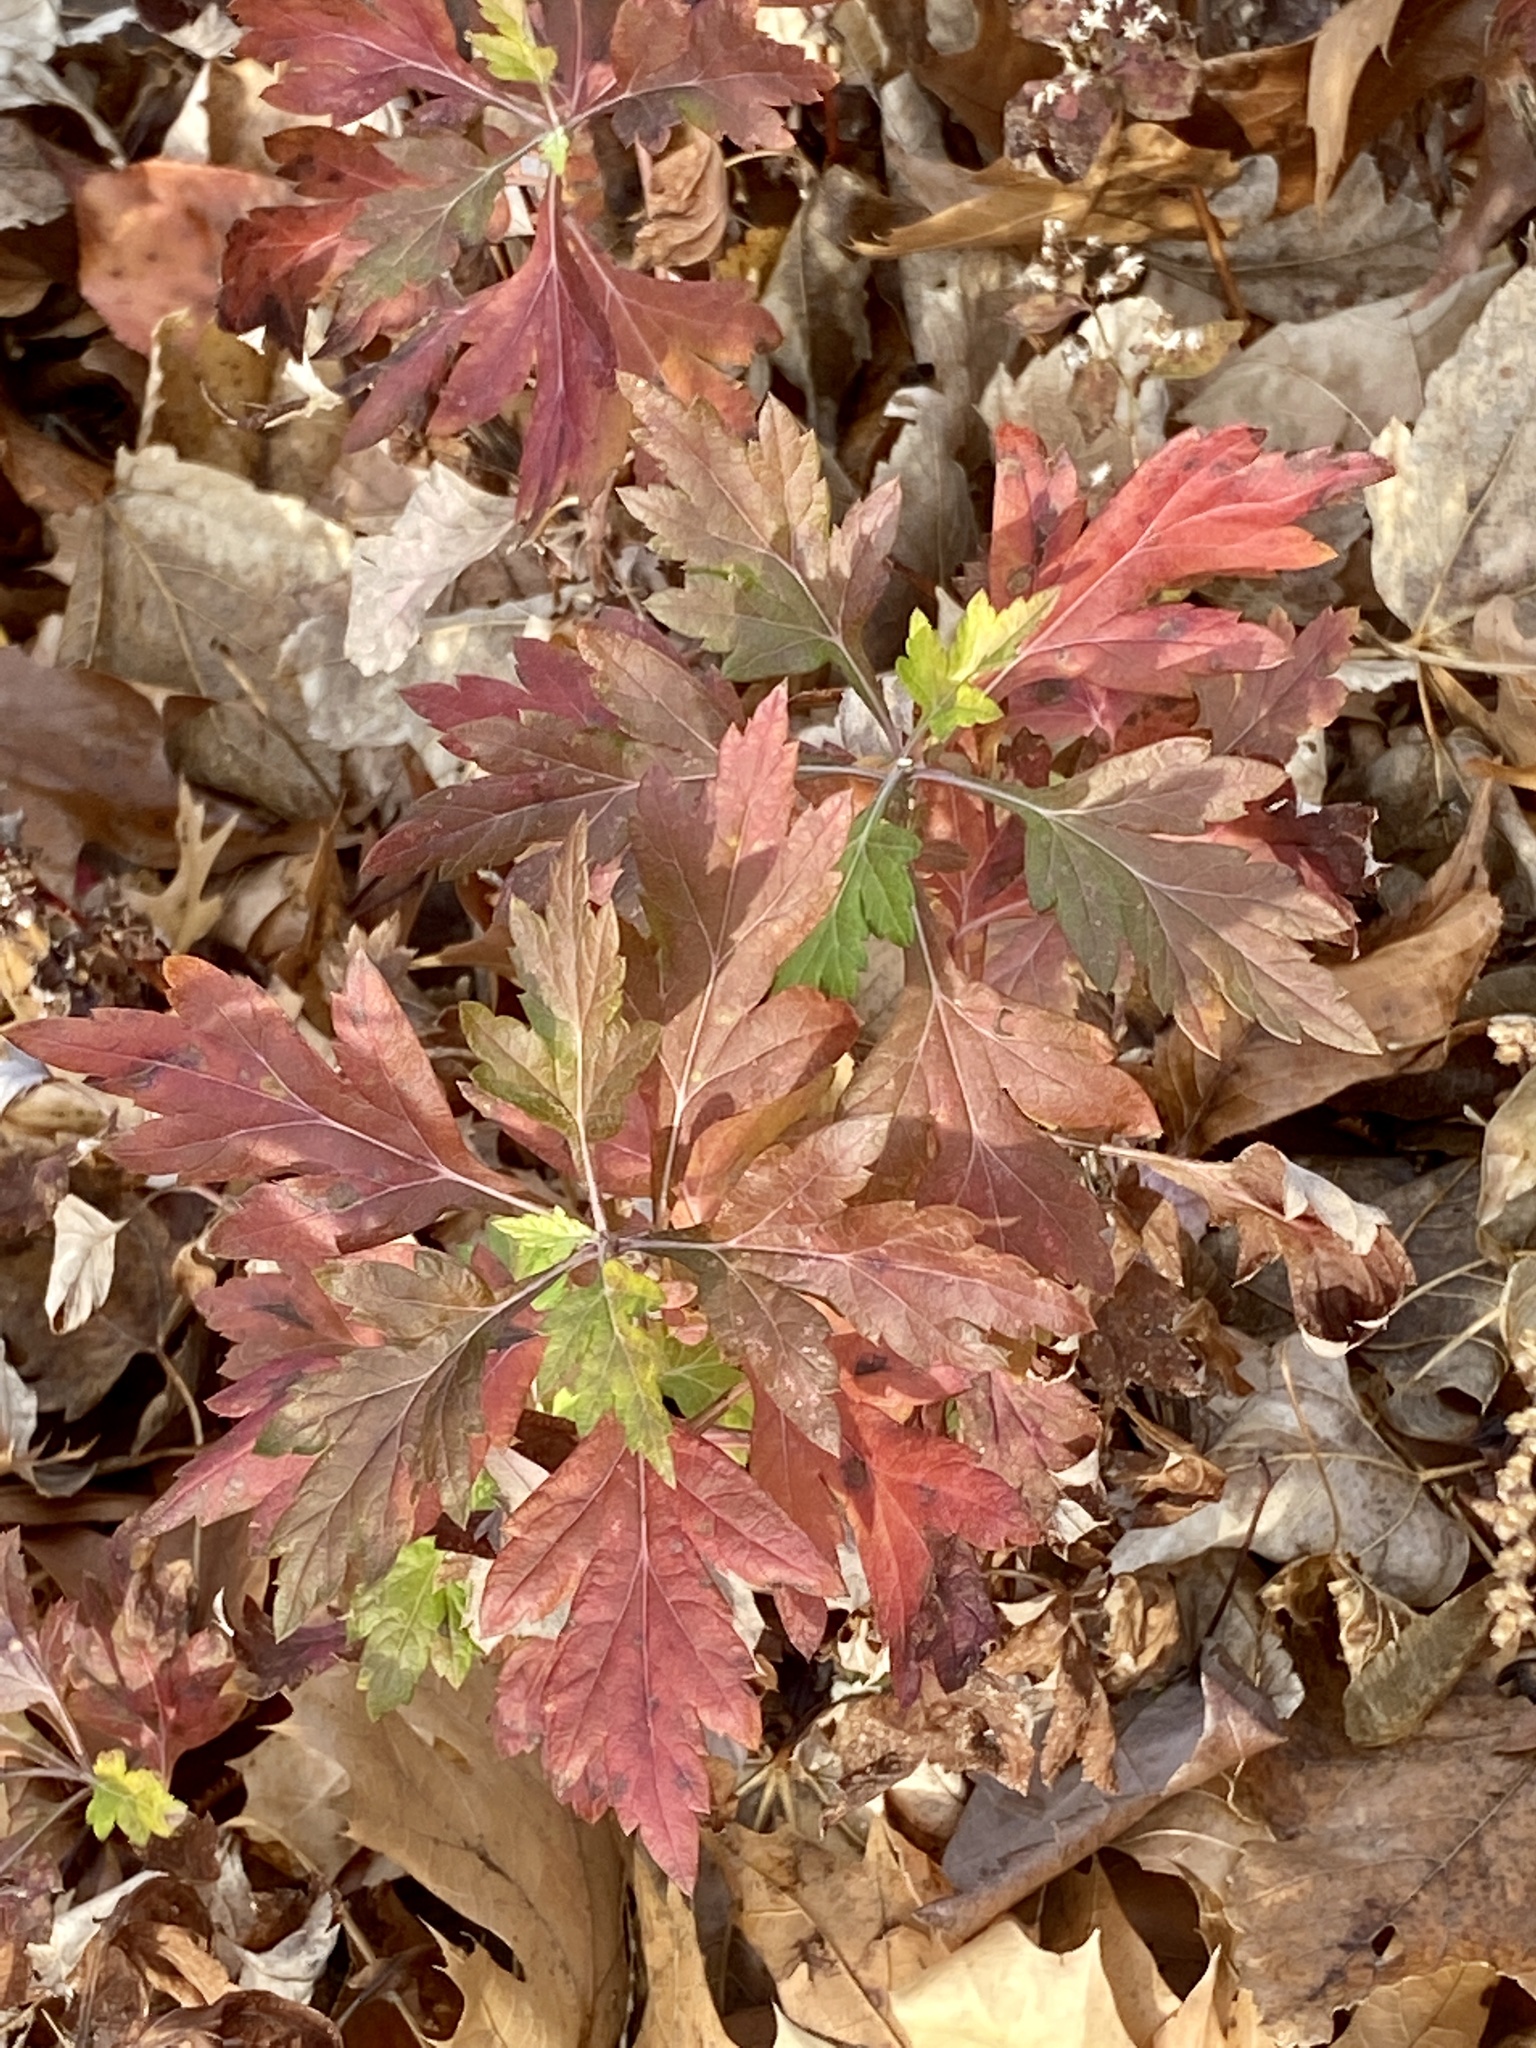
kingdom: Plantae
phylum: Tracheophyta
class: Magnoliopsida
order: Asterales
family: Asteraceae
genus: Artemisia
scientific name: Artemisia vulgaris
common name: Mugwort
